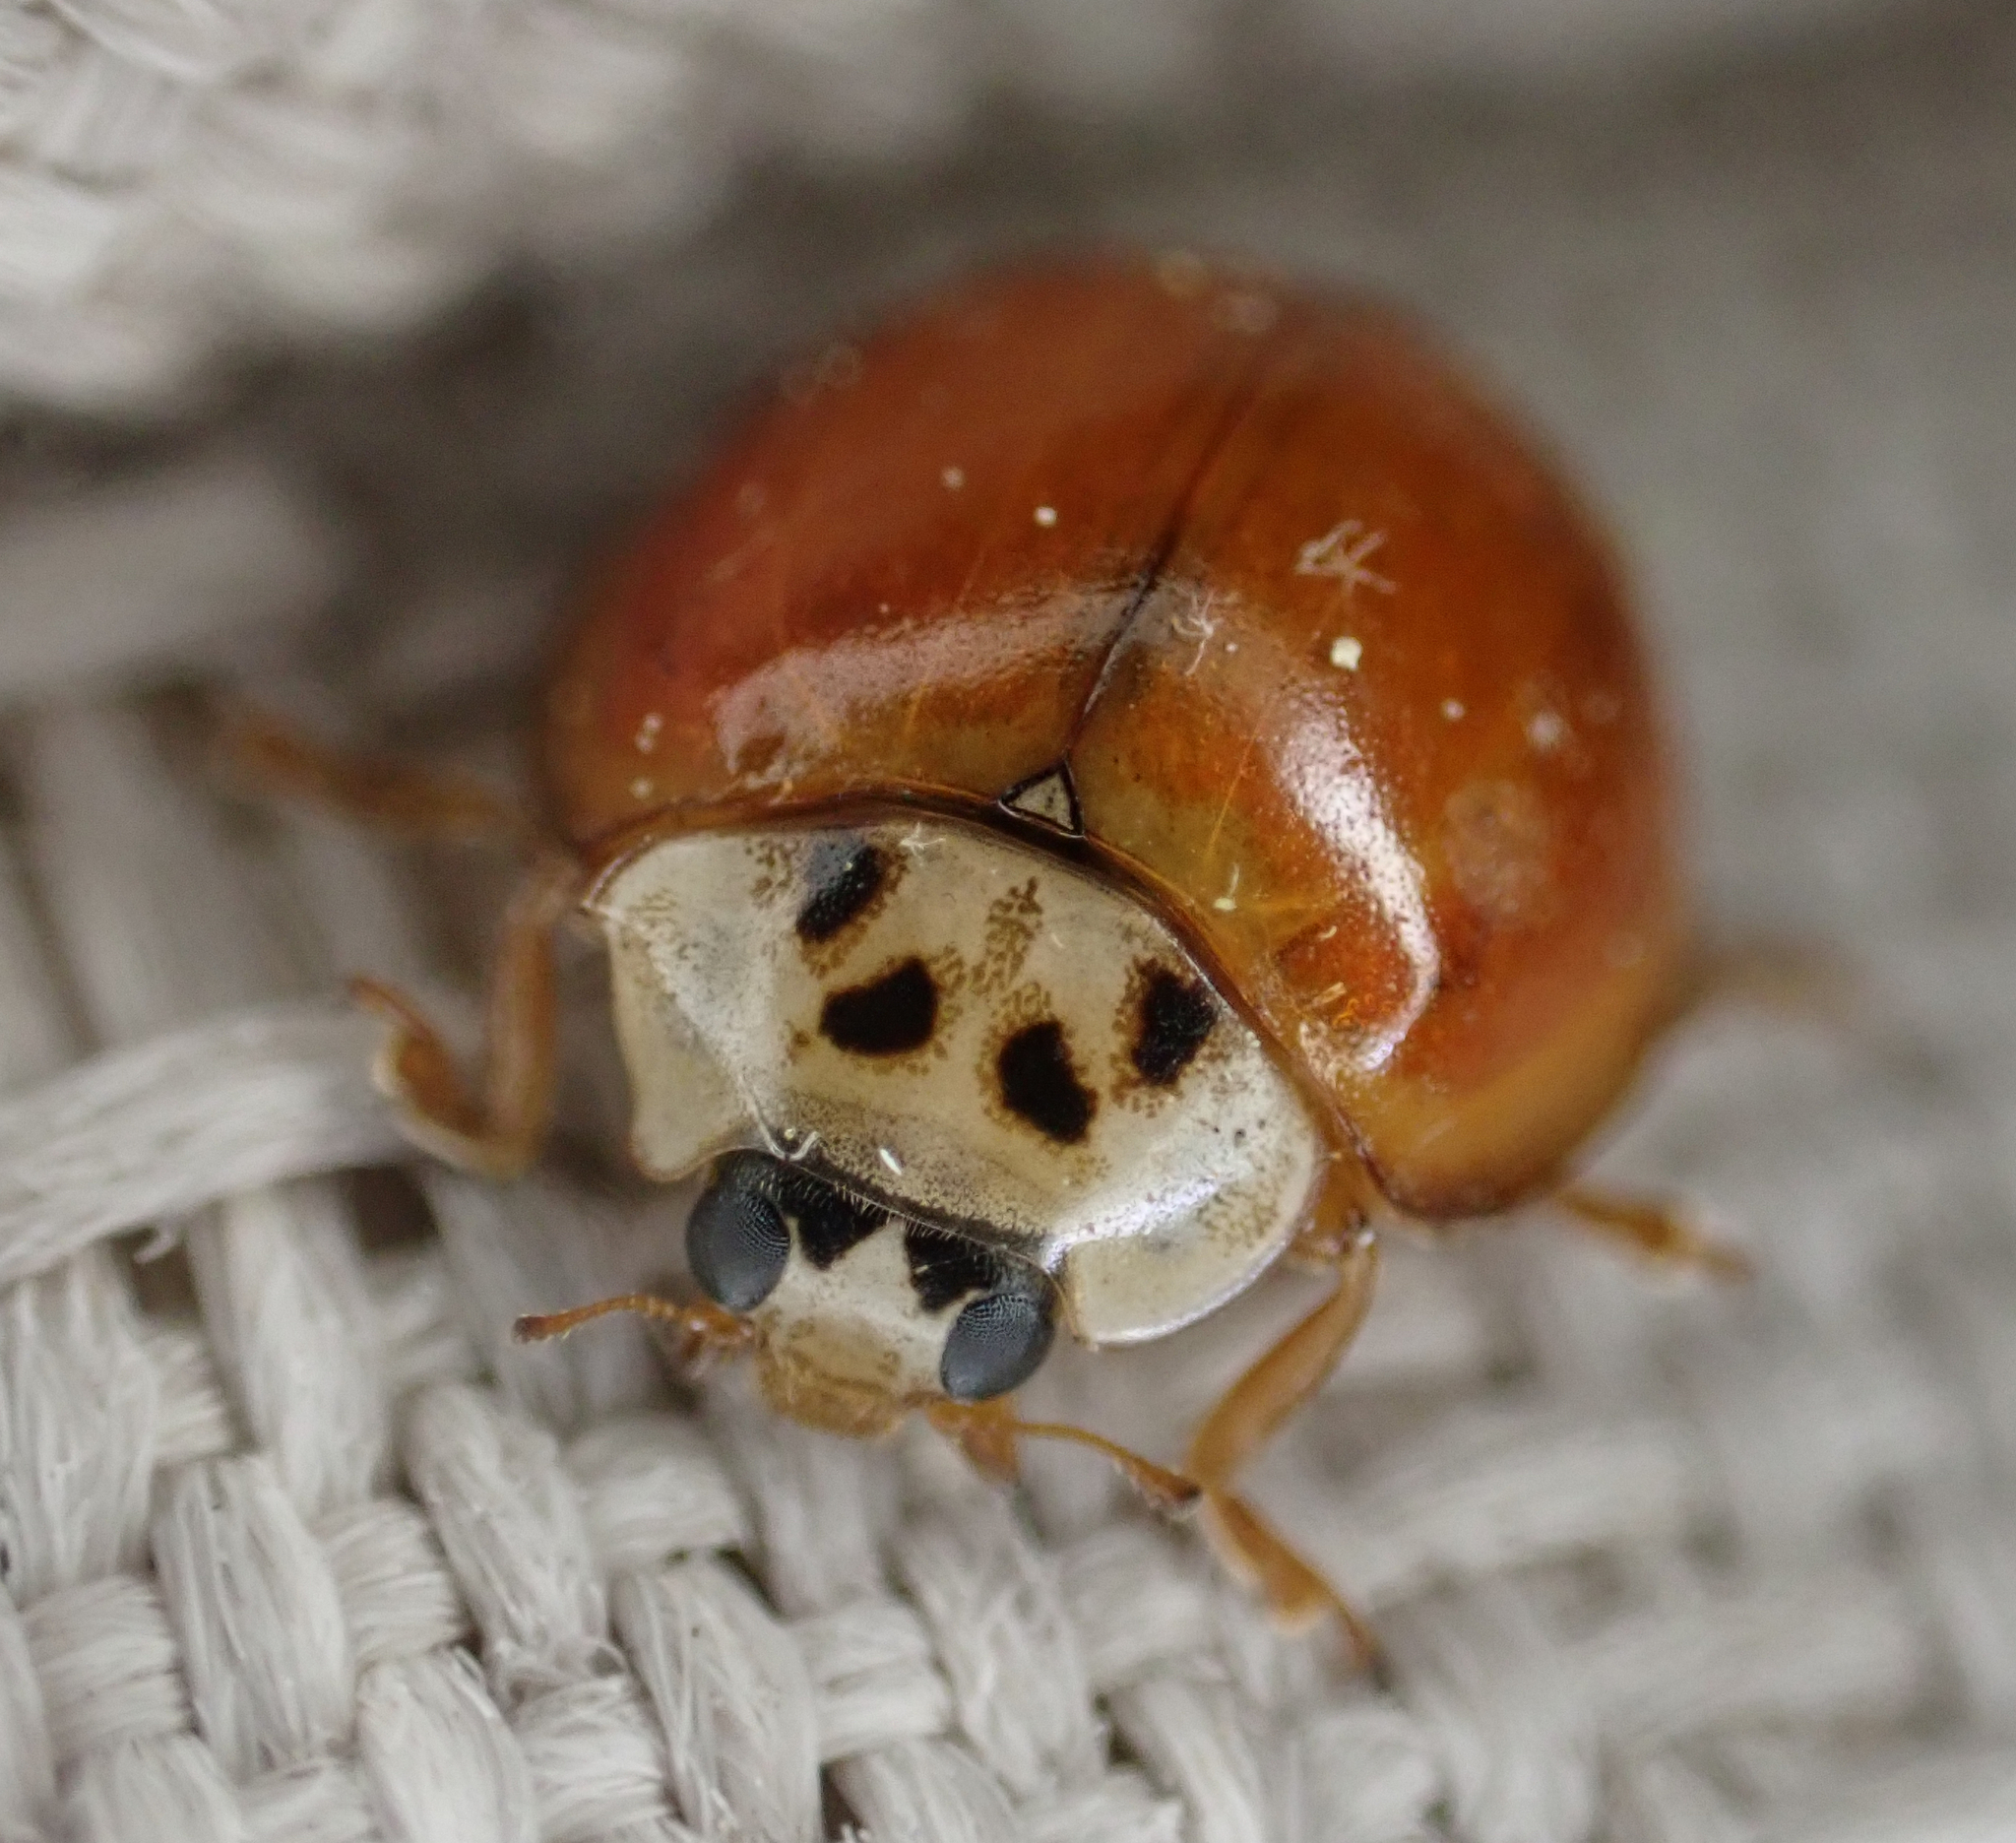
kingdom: Animalia
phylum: Arthropoda
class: Insecta
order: Coleoptera
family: Coccinellidae
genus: Harmonia
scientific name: Harmonia axyridis
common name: Harlequin ladybird
